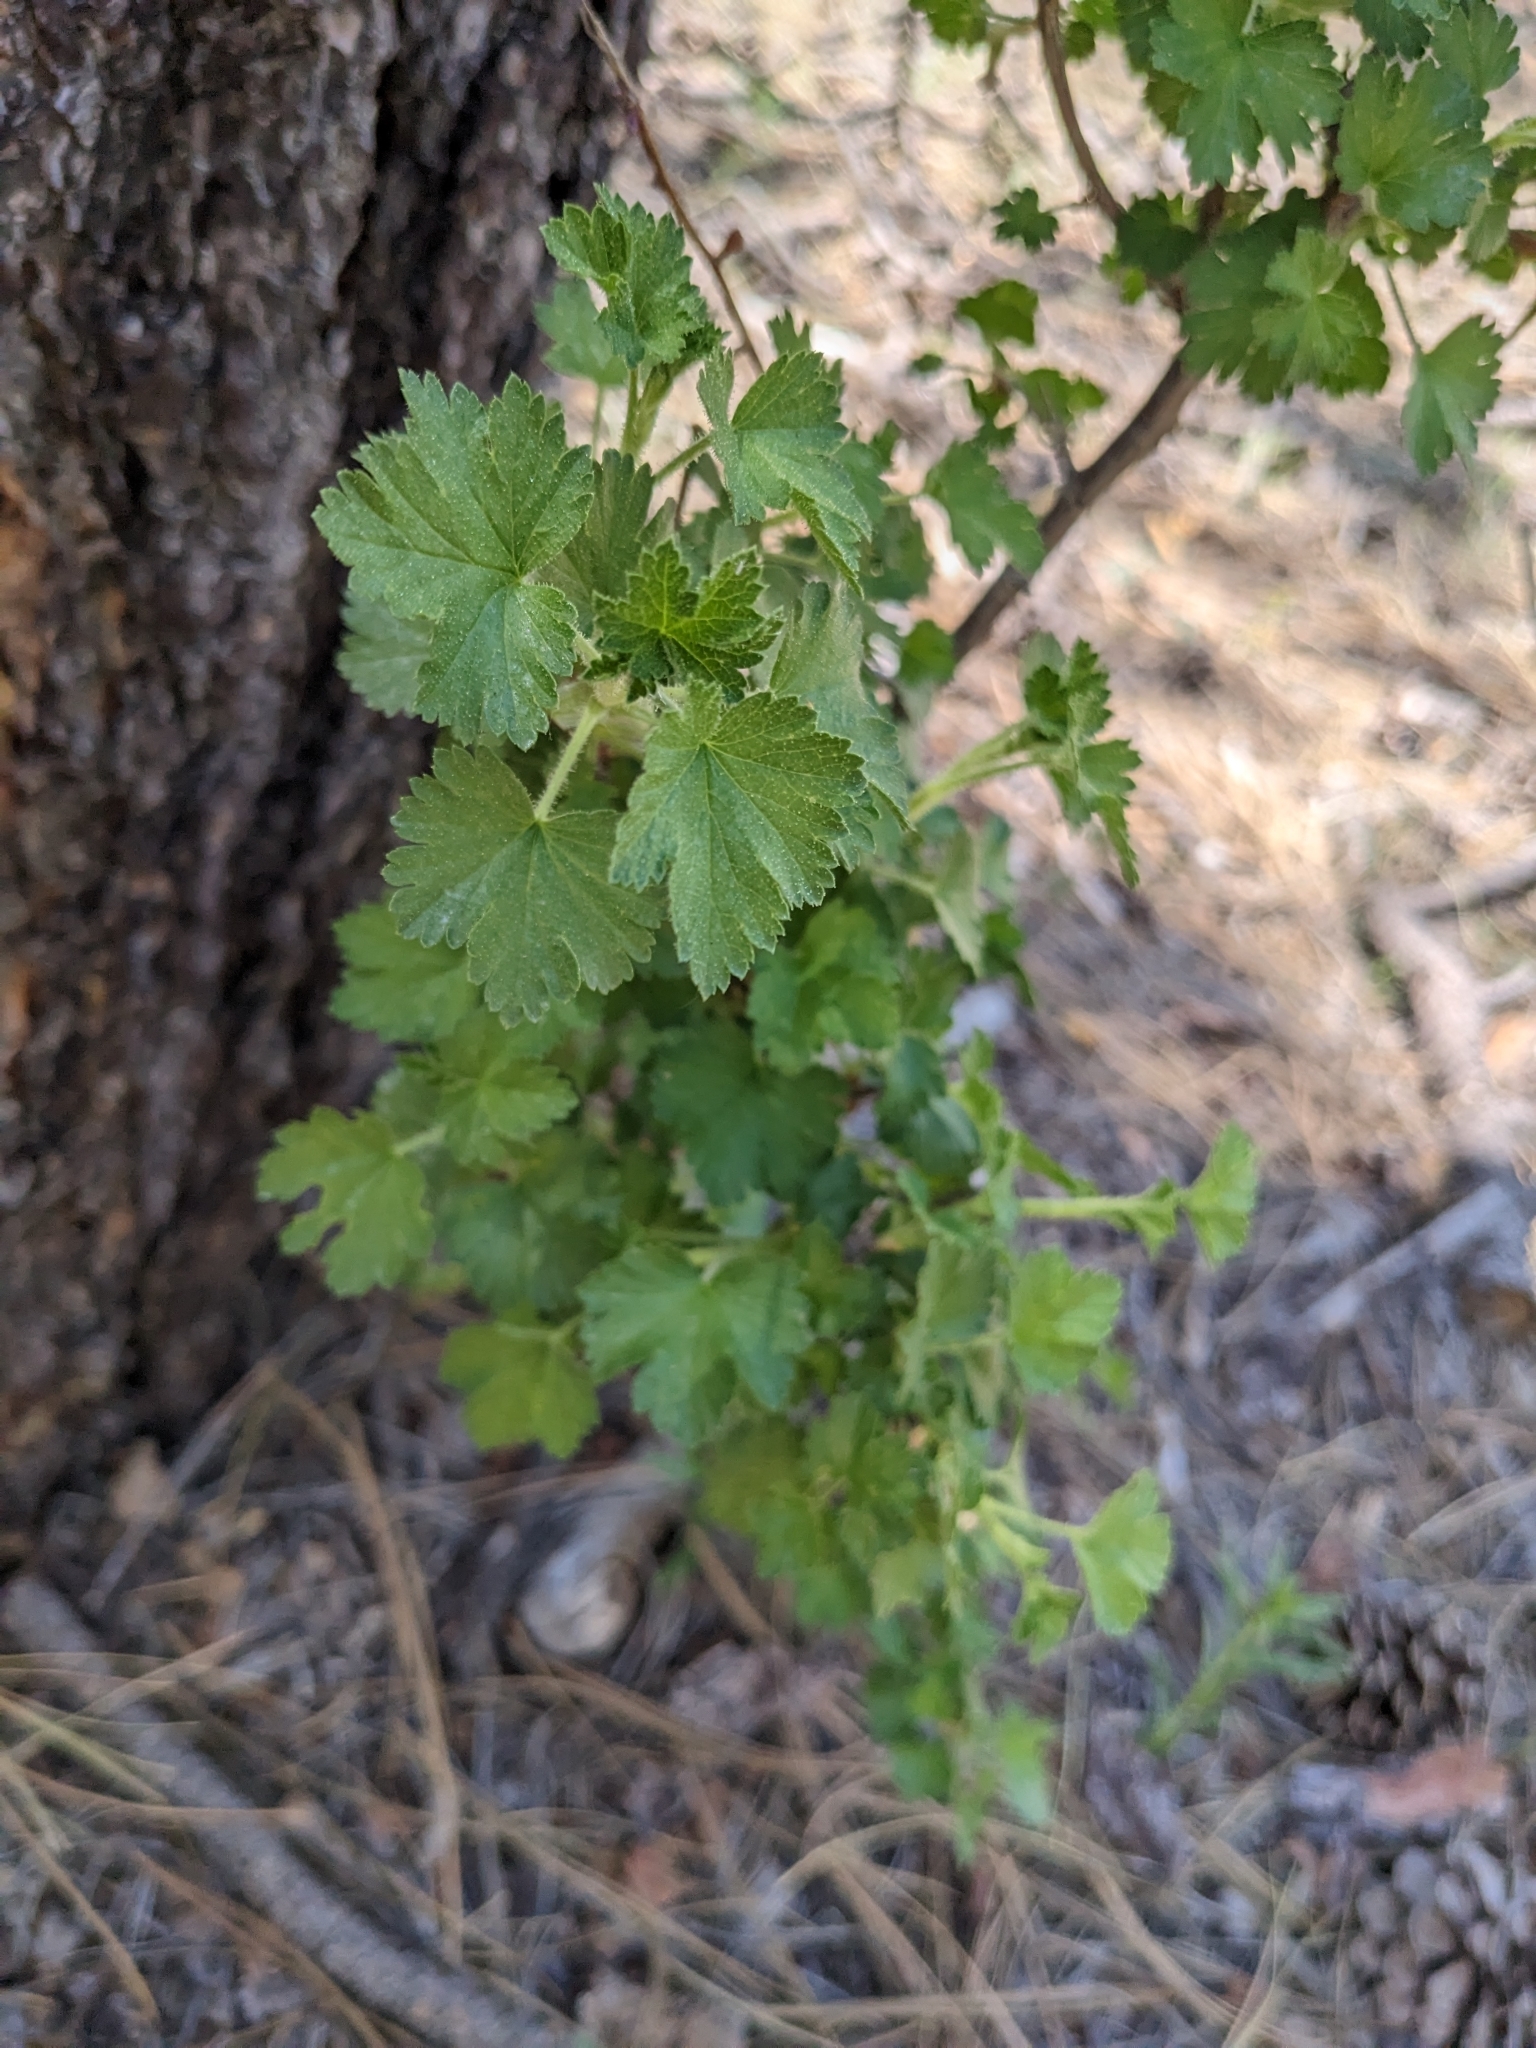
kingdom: Plantae
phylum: Tracheophyta
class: Magnoliopsida
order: Saxifragales
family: Grossulariaceae
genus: Ribes
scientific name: Ribes cereum
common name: Wax currant
